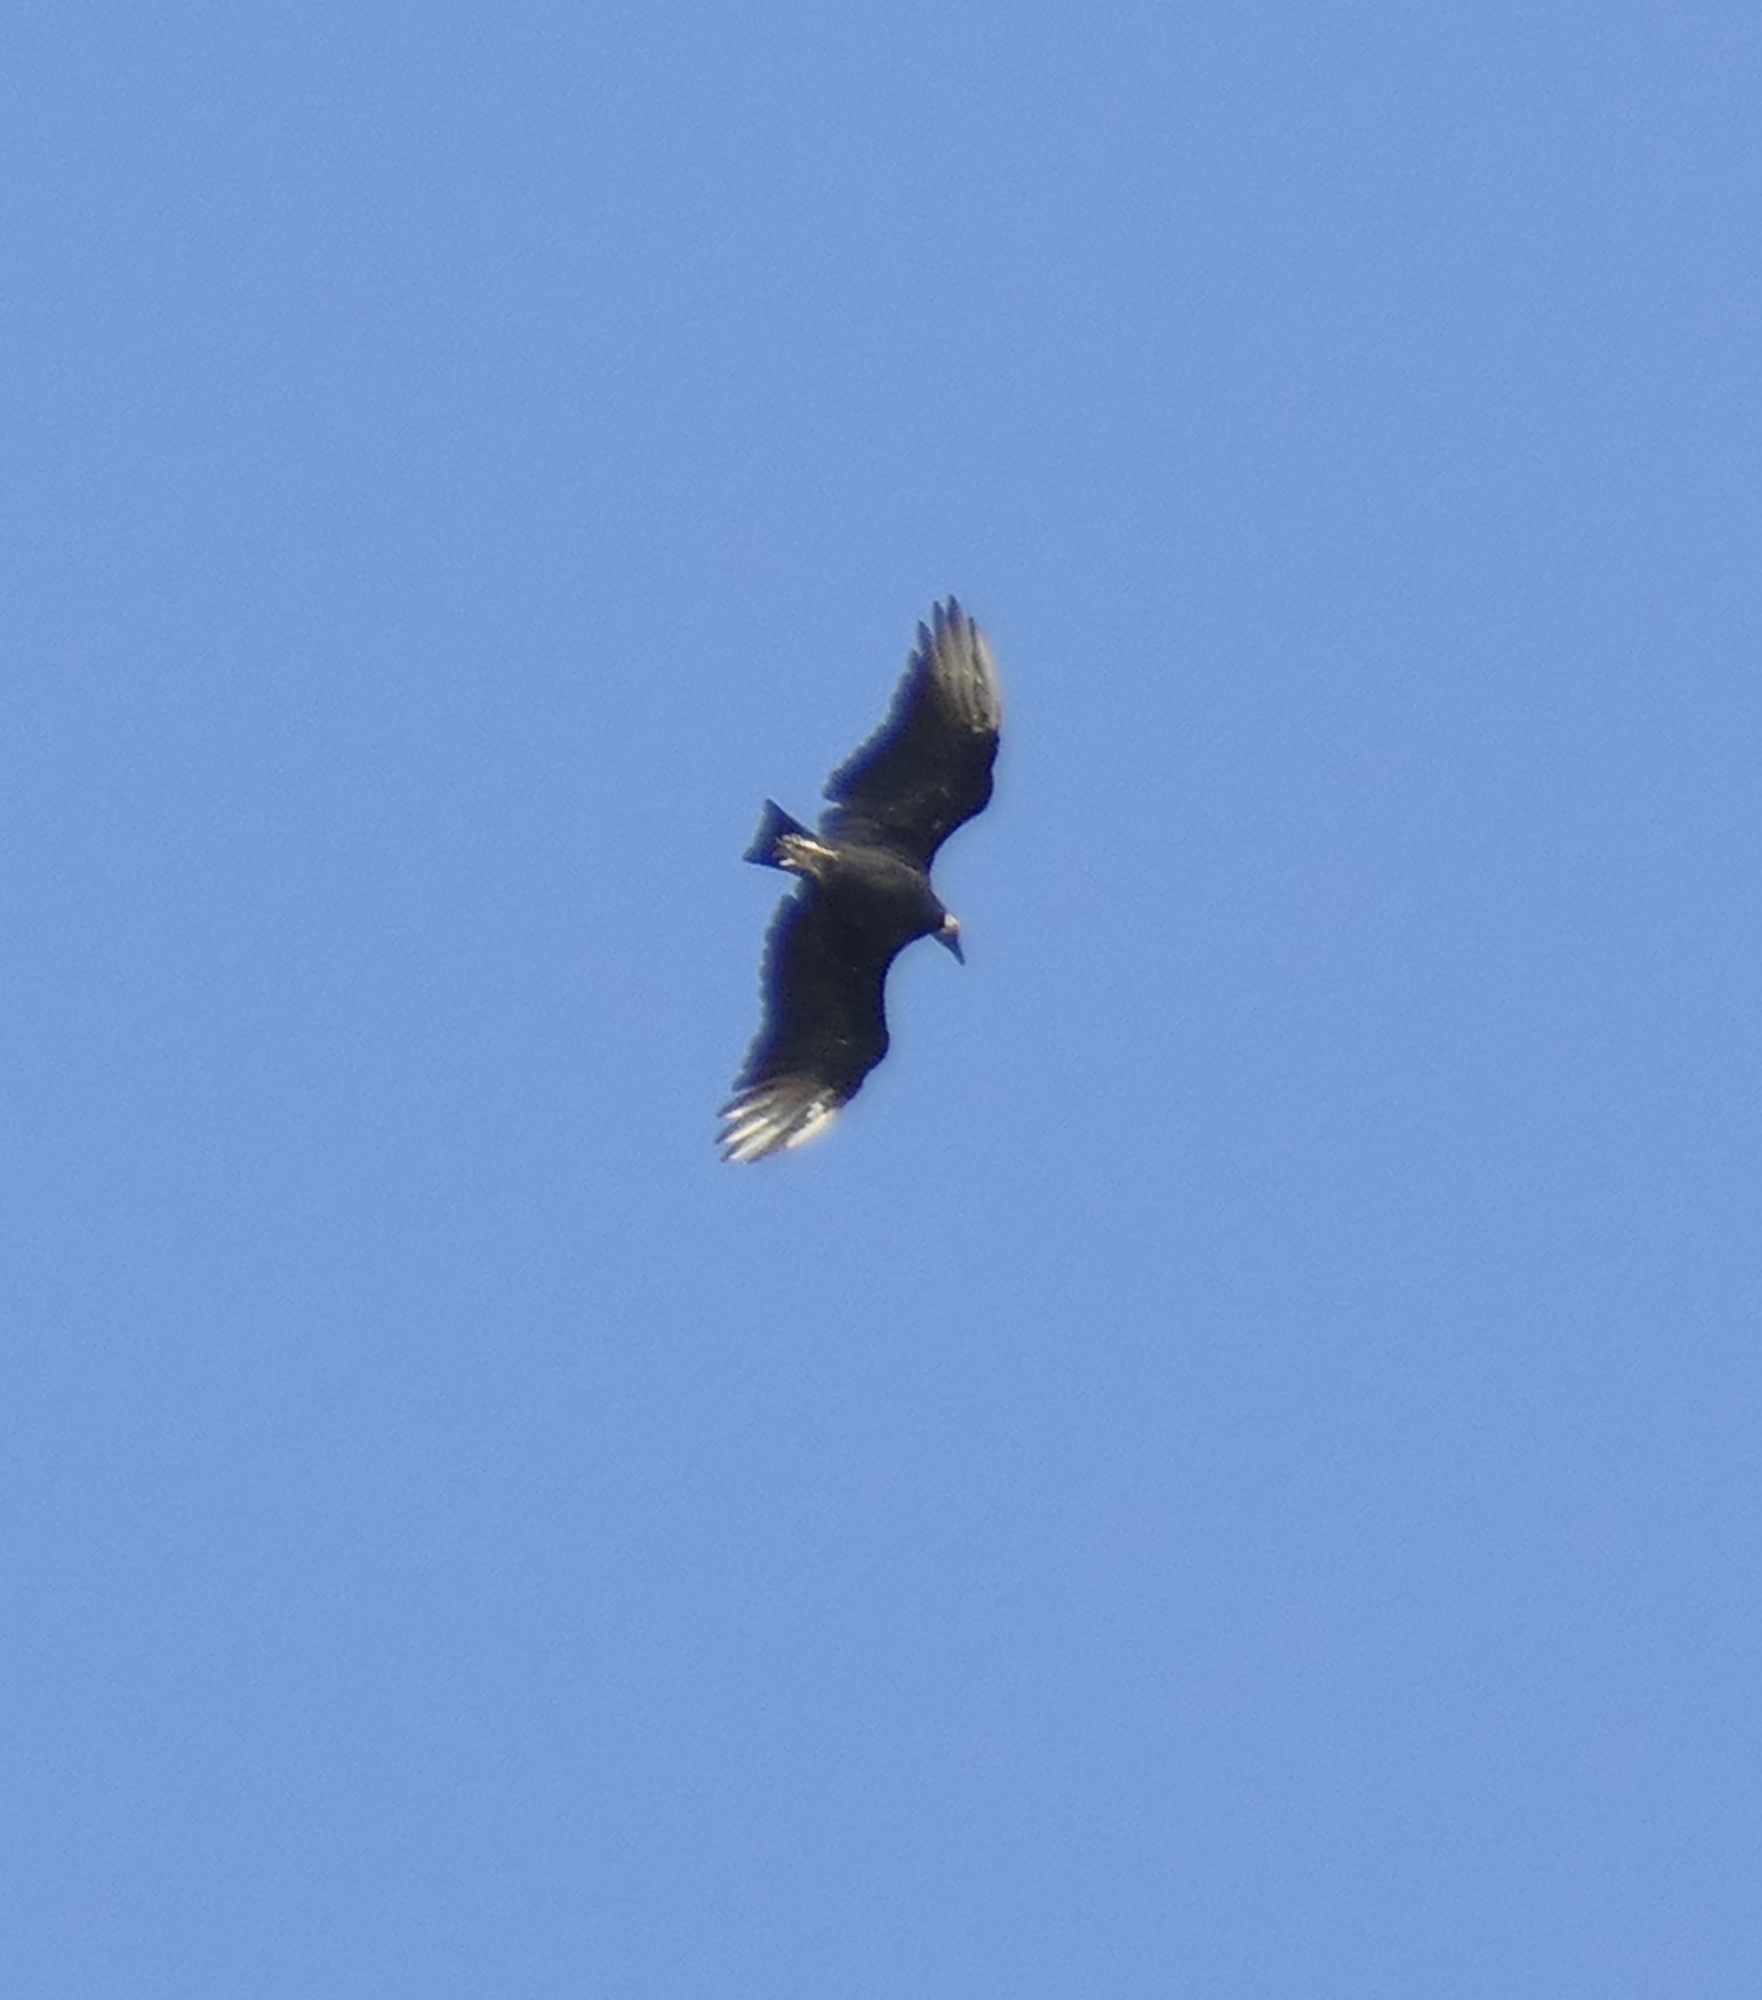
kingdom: Animalia
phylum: Chordata
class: Aves
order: Accipitriformes
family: Cathartidae
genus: Coragyps
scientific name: Coragyps atratus
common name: Black vulture
